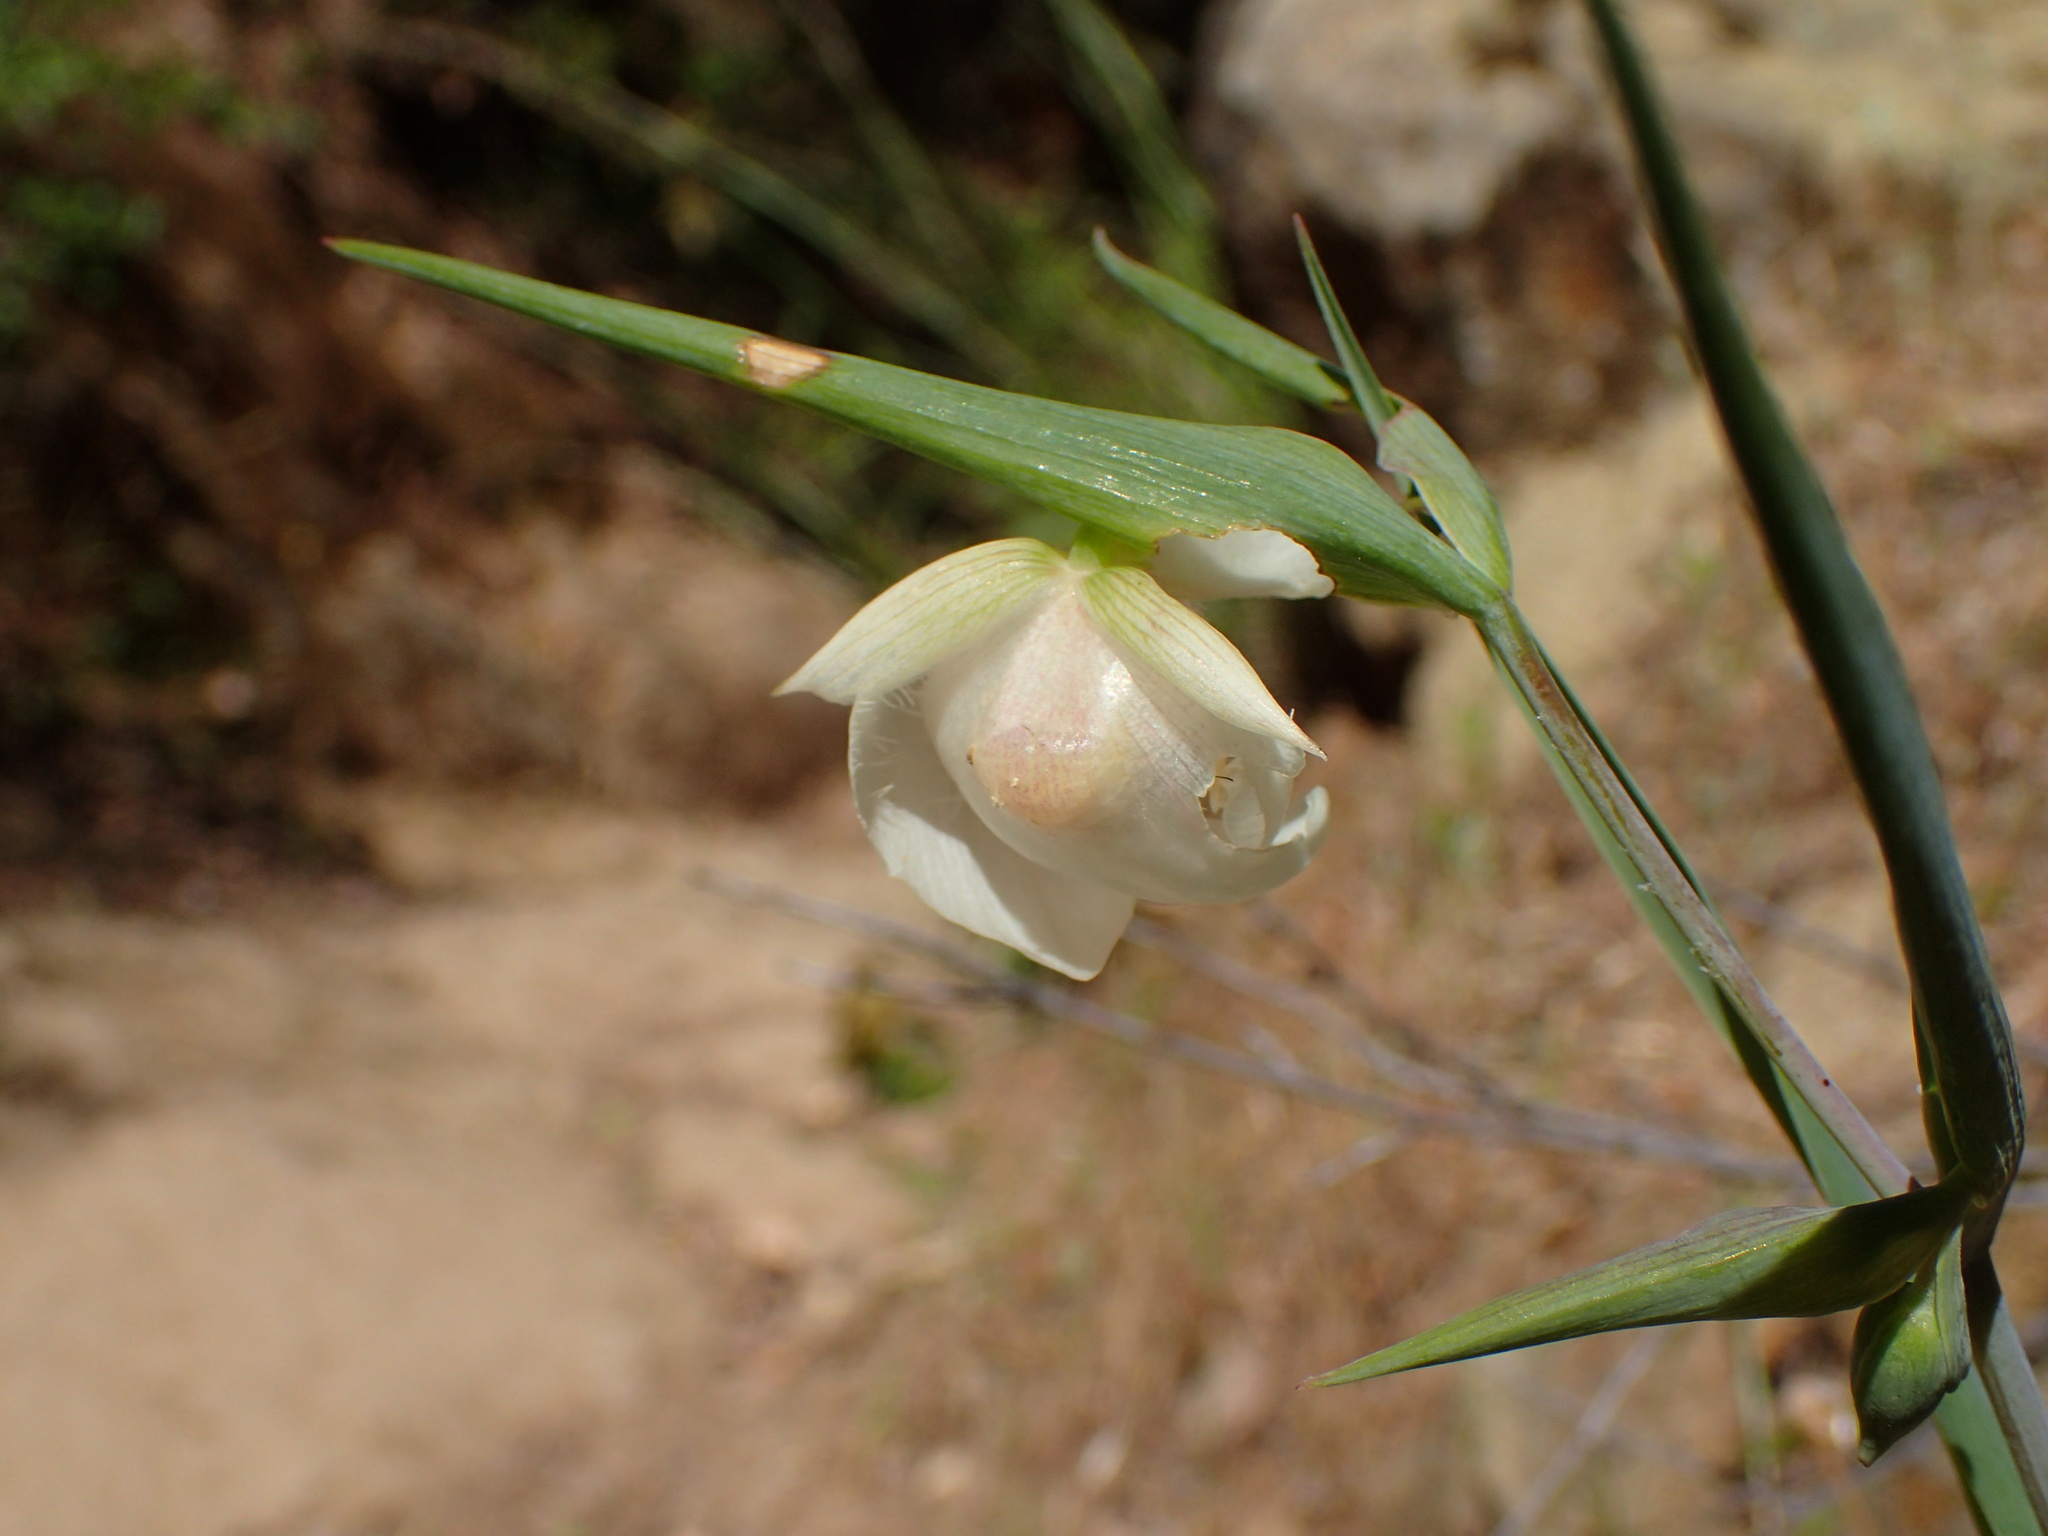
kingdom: Plantae
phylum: Tracheophyta
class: Liliopsida
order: Liliales
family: Liliaceae
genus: Calochortus
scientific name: Calochortus albus
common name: Fairy-lantern
